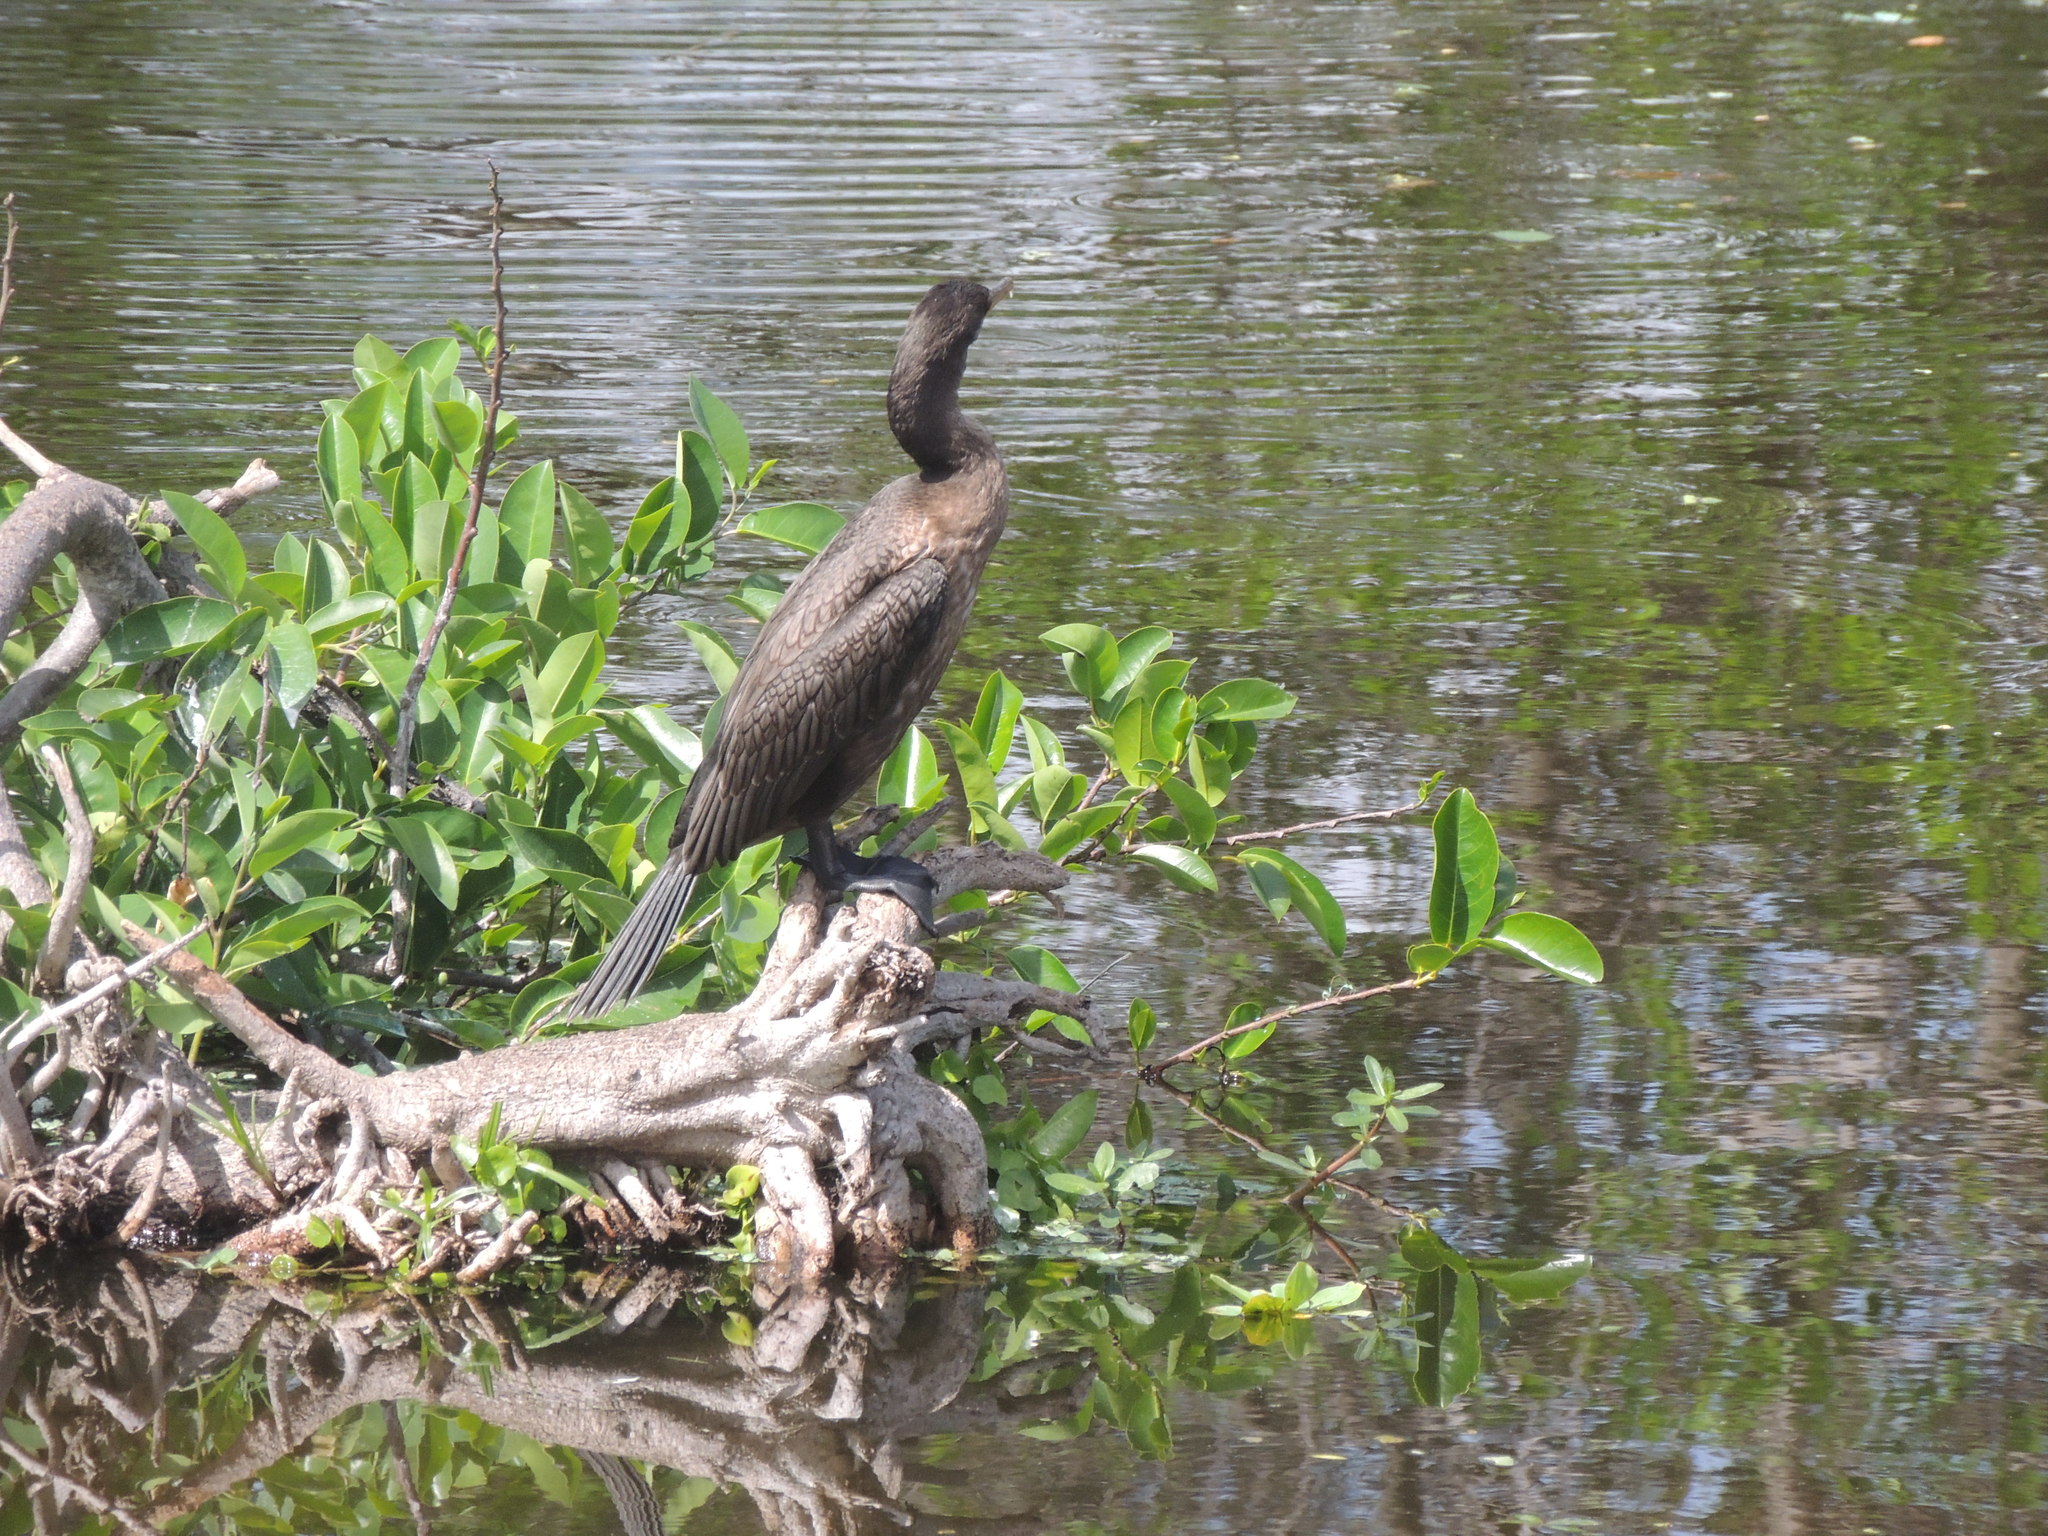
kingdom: Animalia
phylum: Chordata
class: Aves
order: Suliformes
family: Phalacrocoracidae
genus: Phalacrocorax
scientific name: Phalacrocorax auritus
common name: Double-crested cormorant
